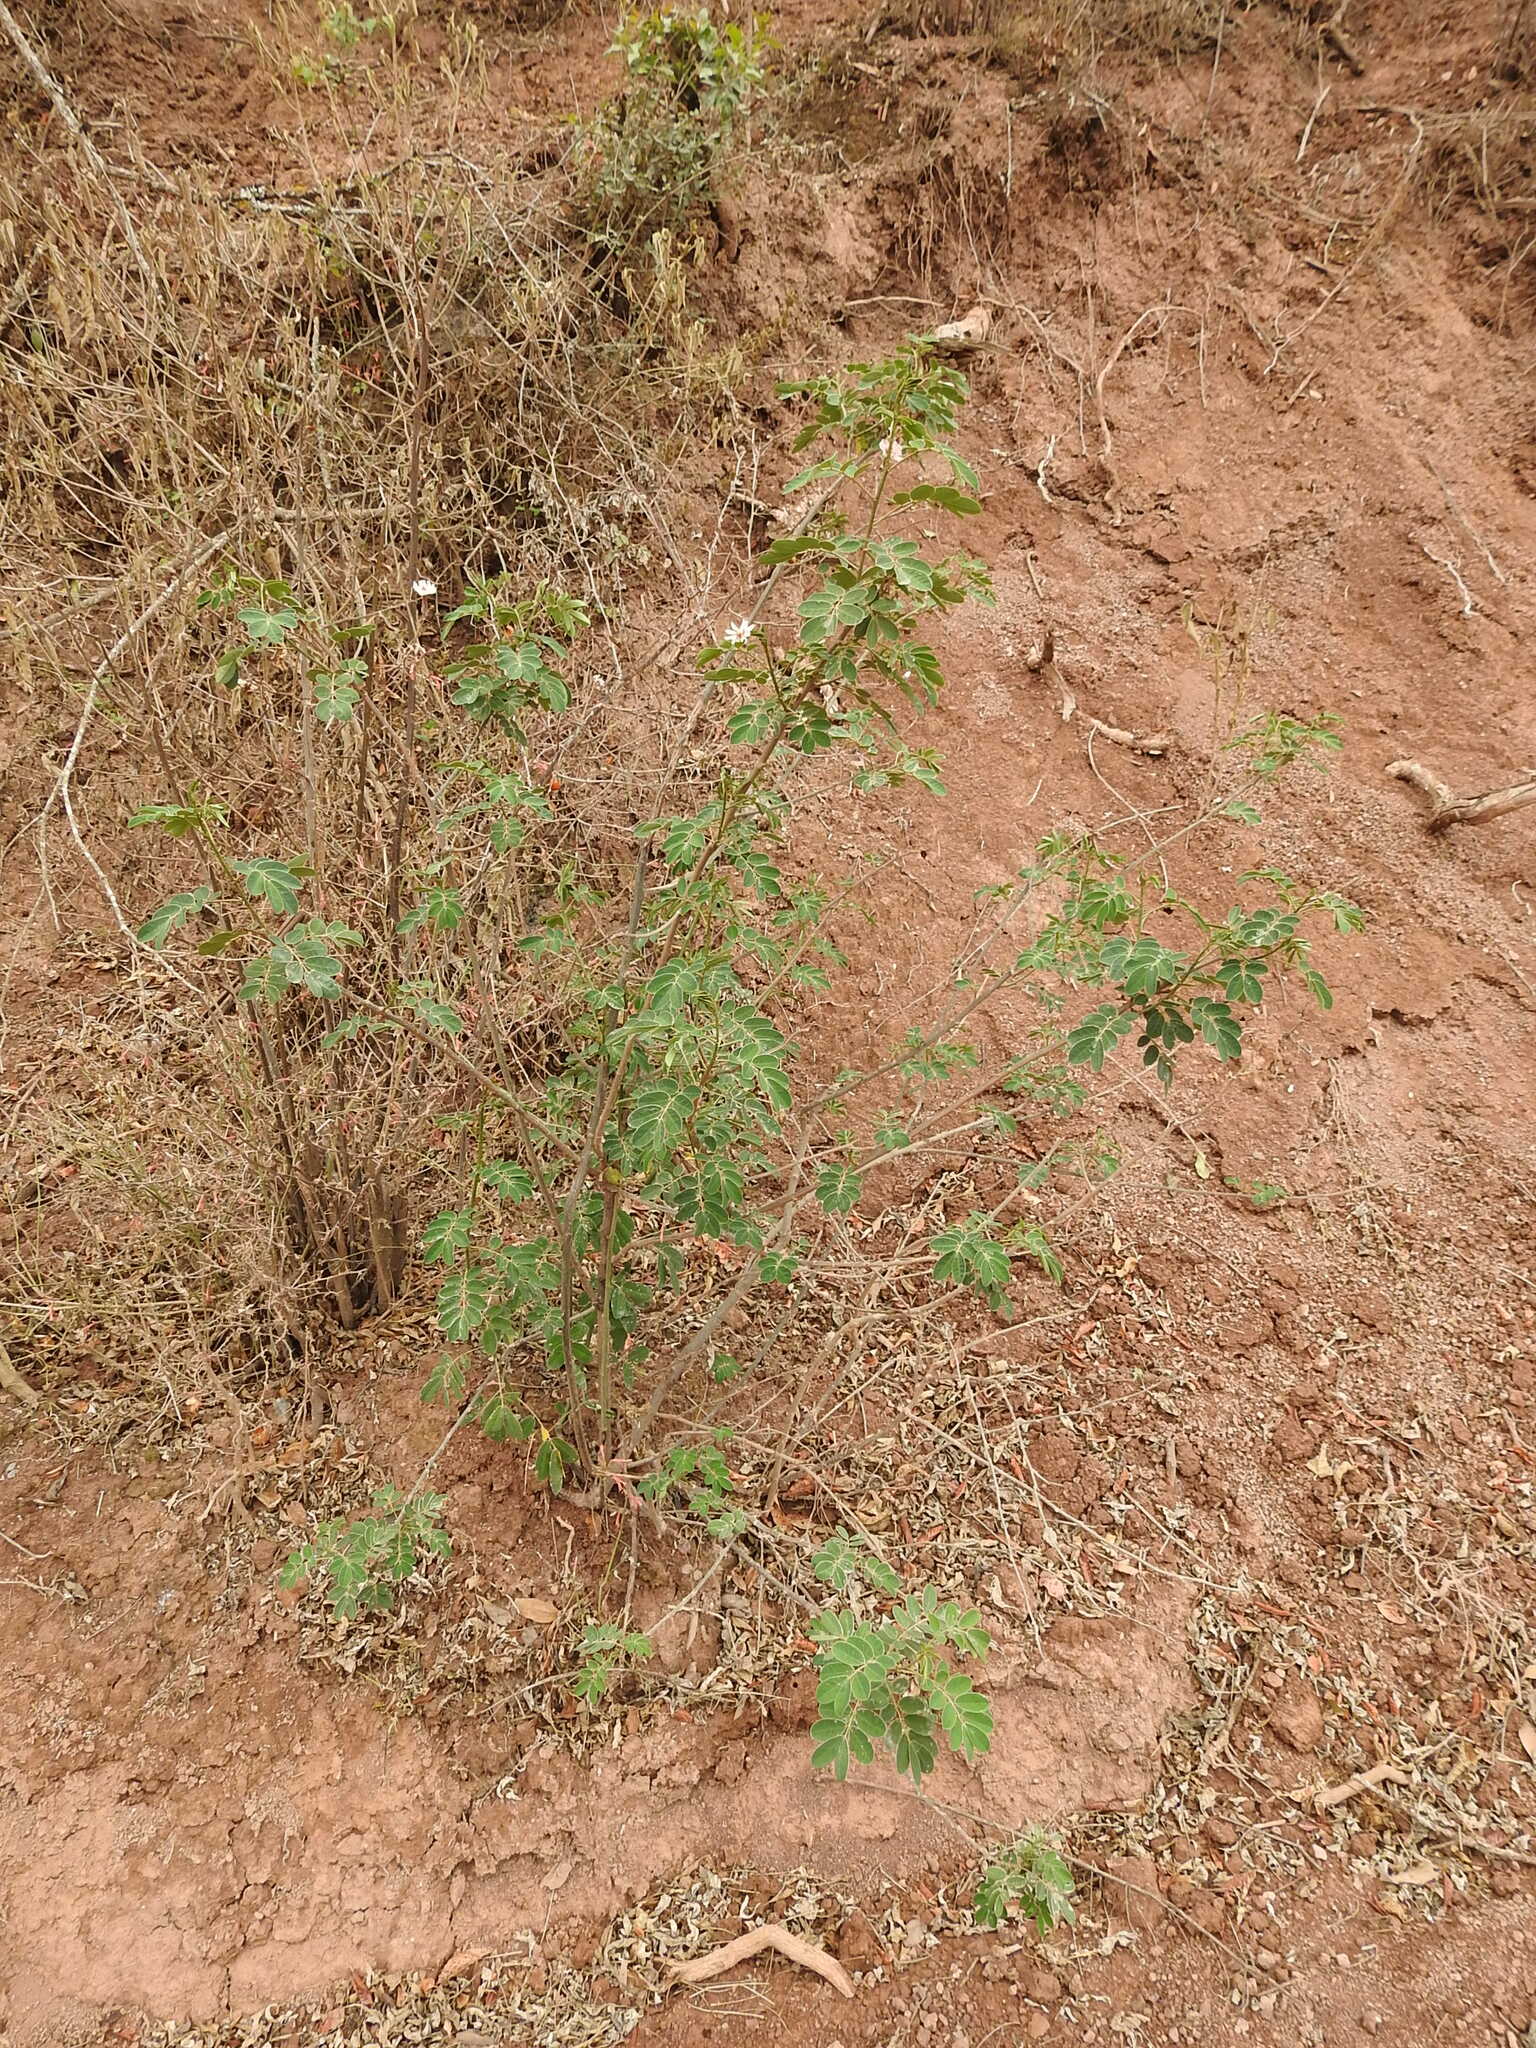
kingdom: Plantae
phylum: Tracheophyta
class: Magnoliopsida
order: Fabales
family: Fabaceae
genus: Senna
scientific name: Senna pendula
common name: Easter cassia
